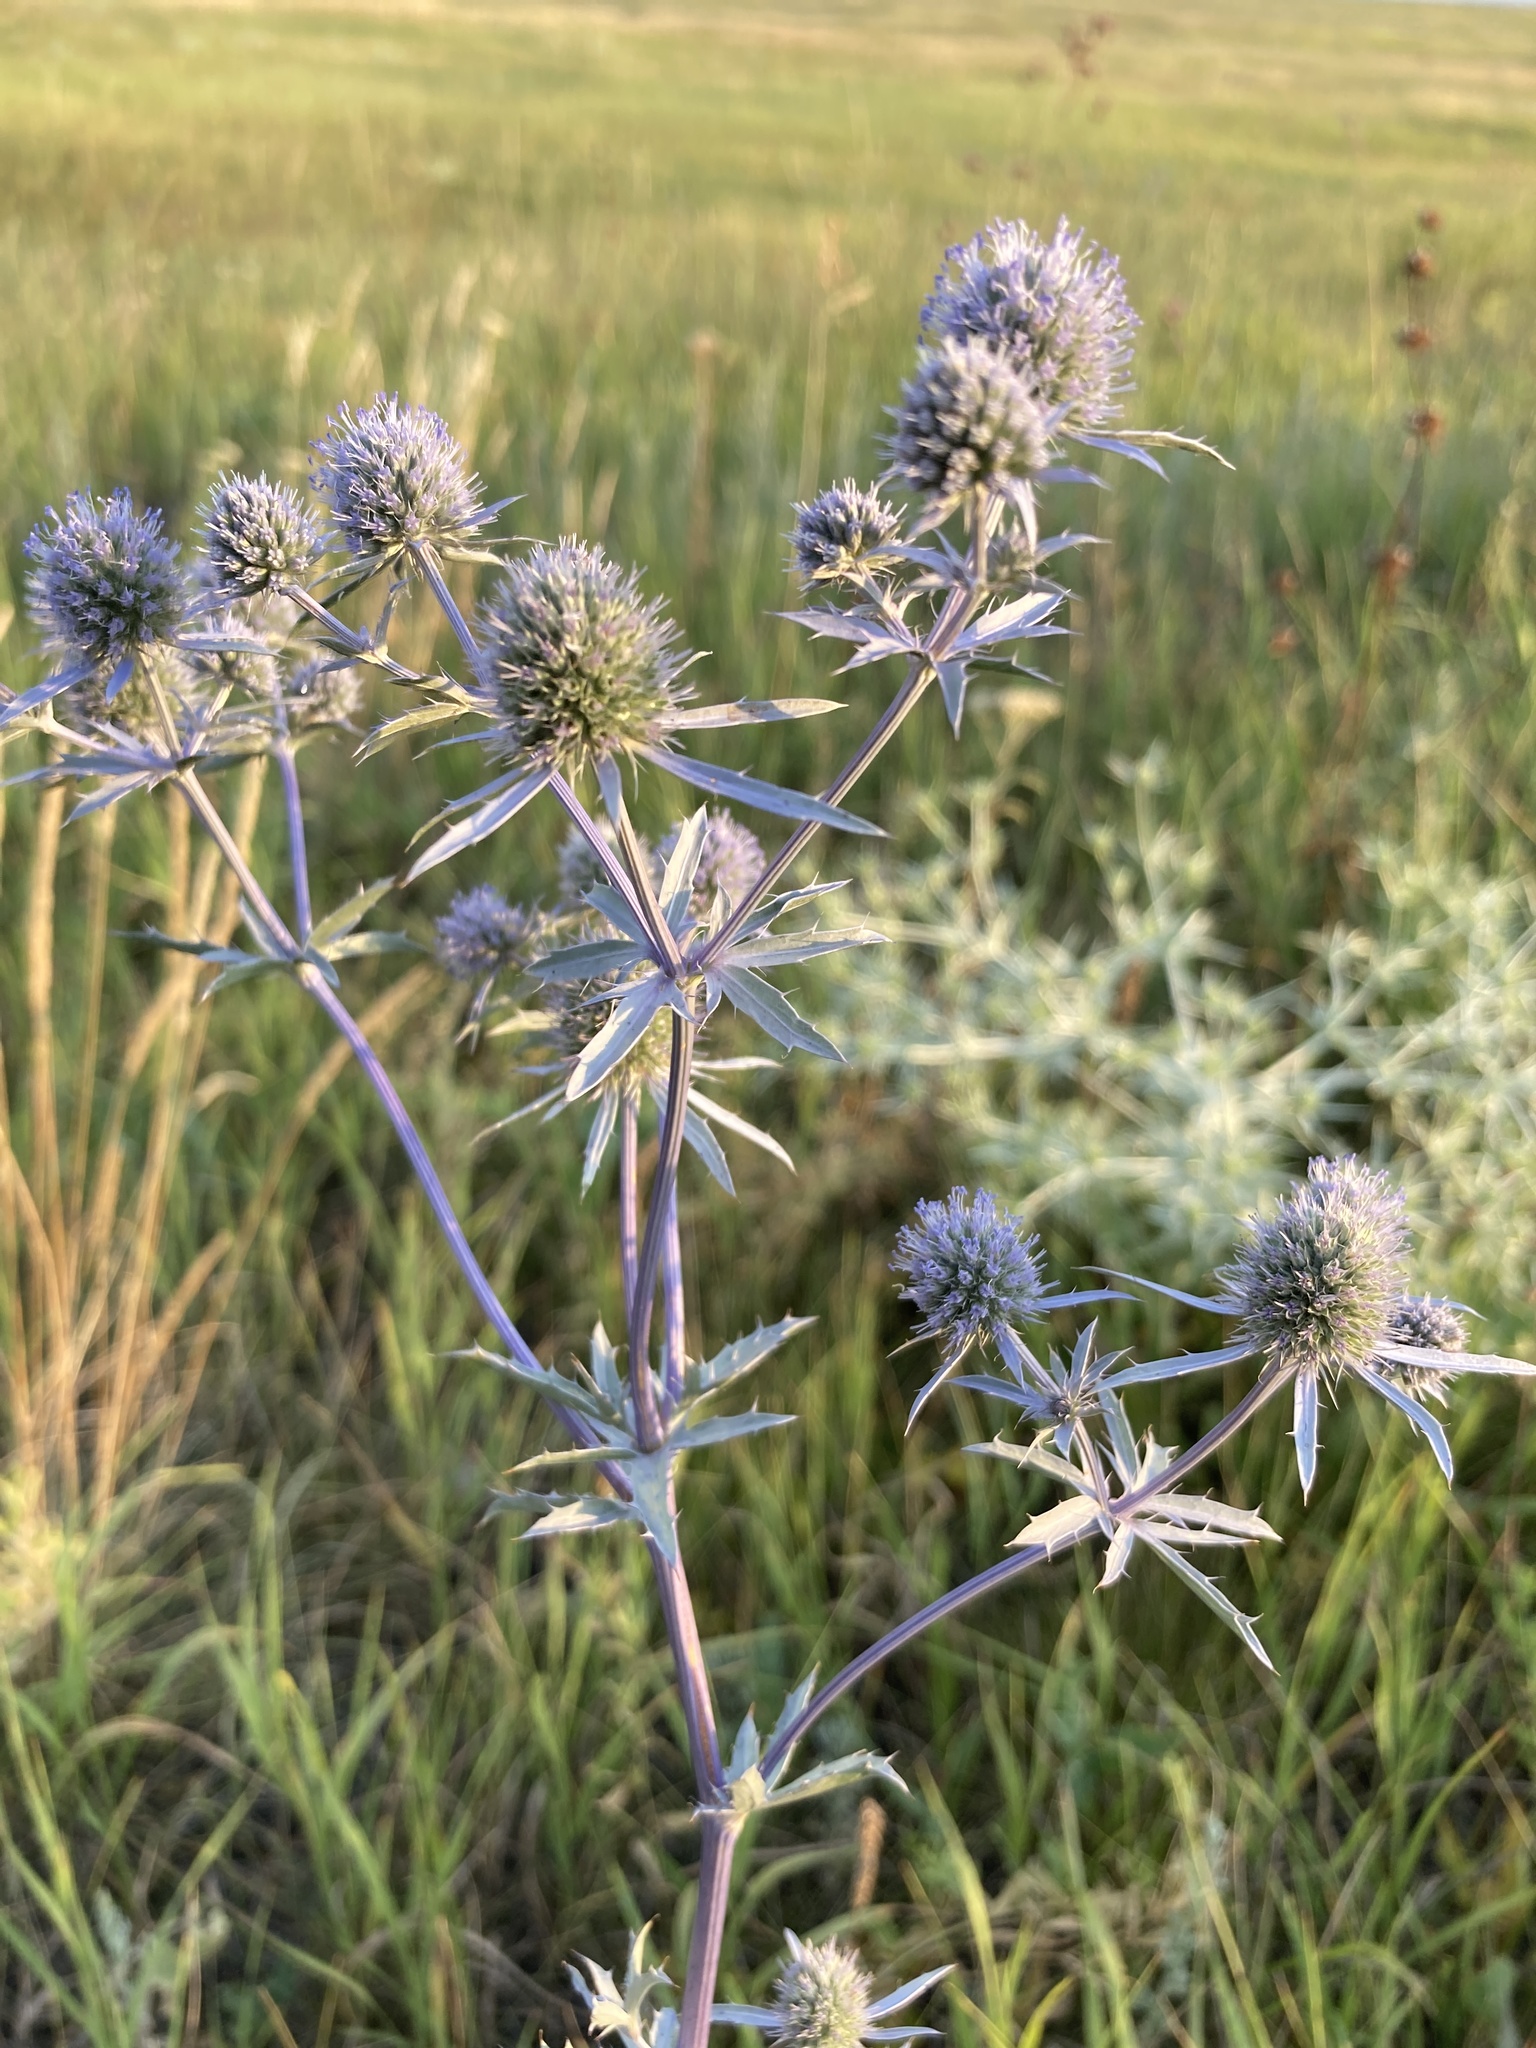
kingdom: Plantae
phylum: Tracheophyta
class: Magnoliopsida
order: Apiales
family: Apiaceae
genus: Eryngium
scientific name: Eryngium planum
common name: Blue eryngo
